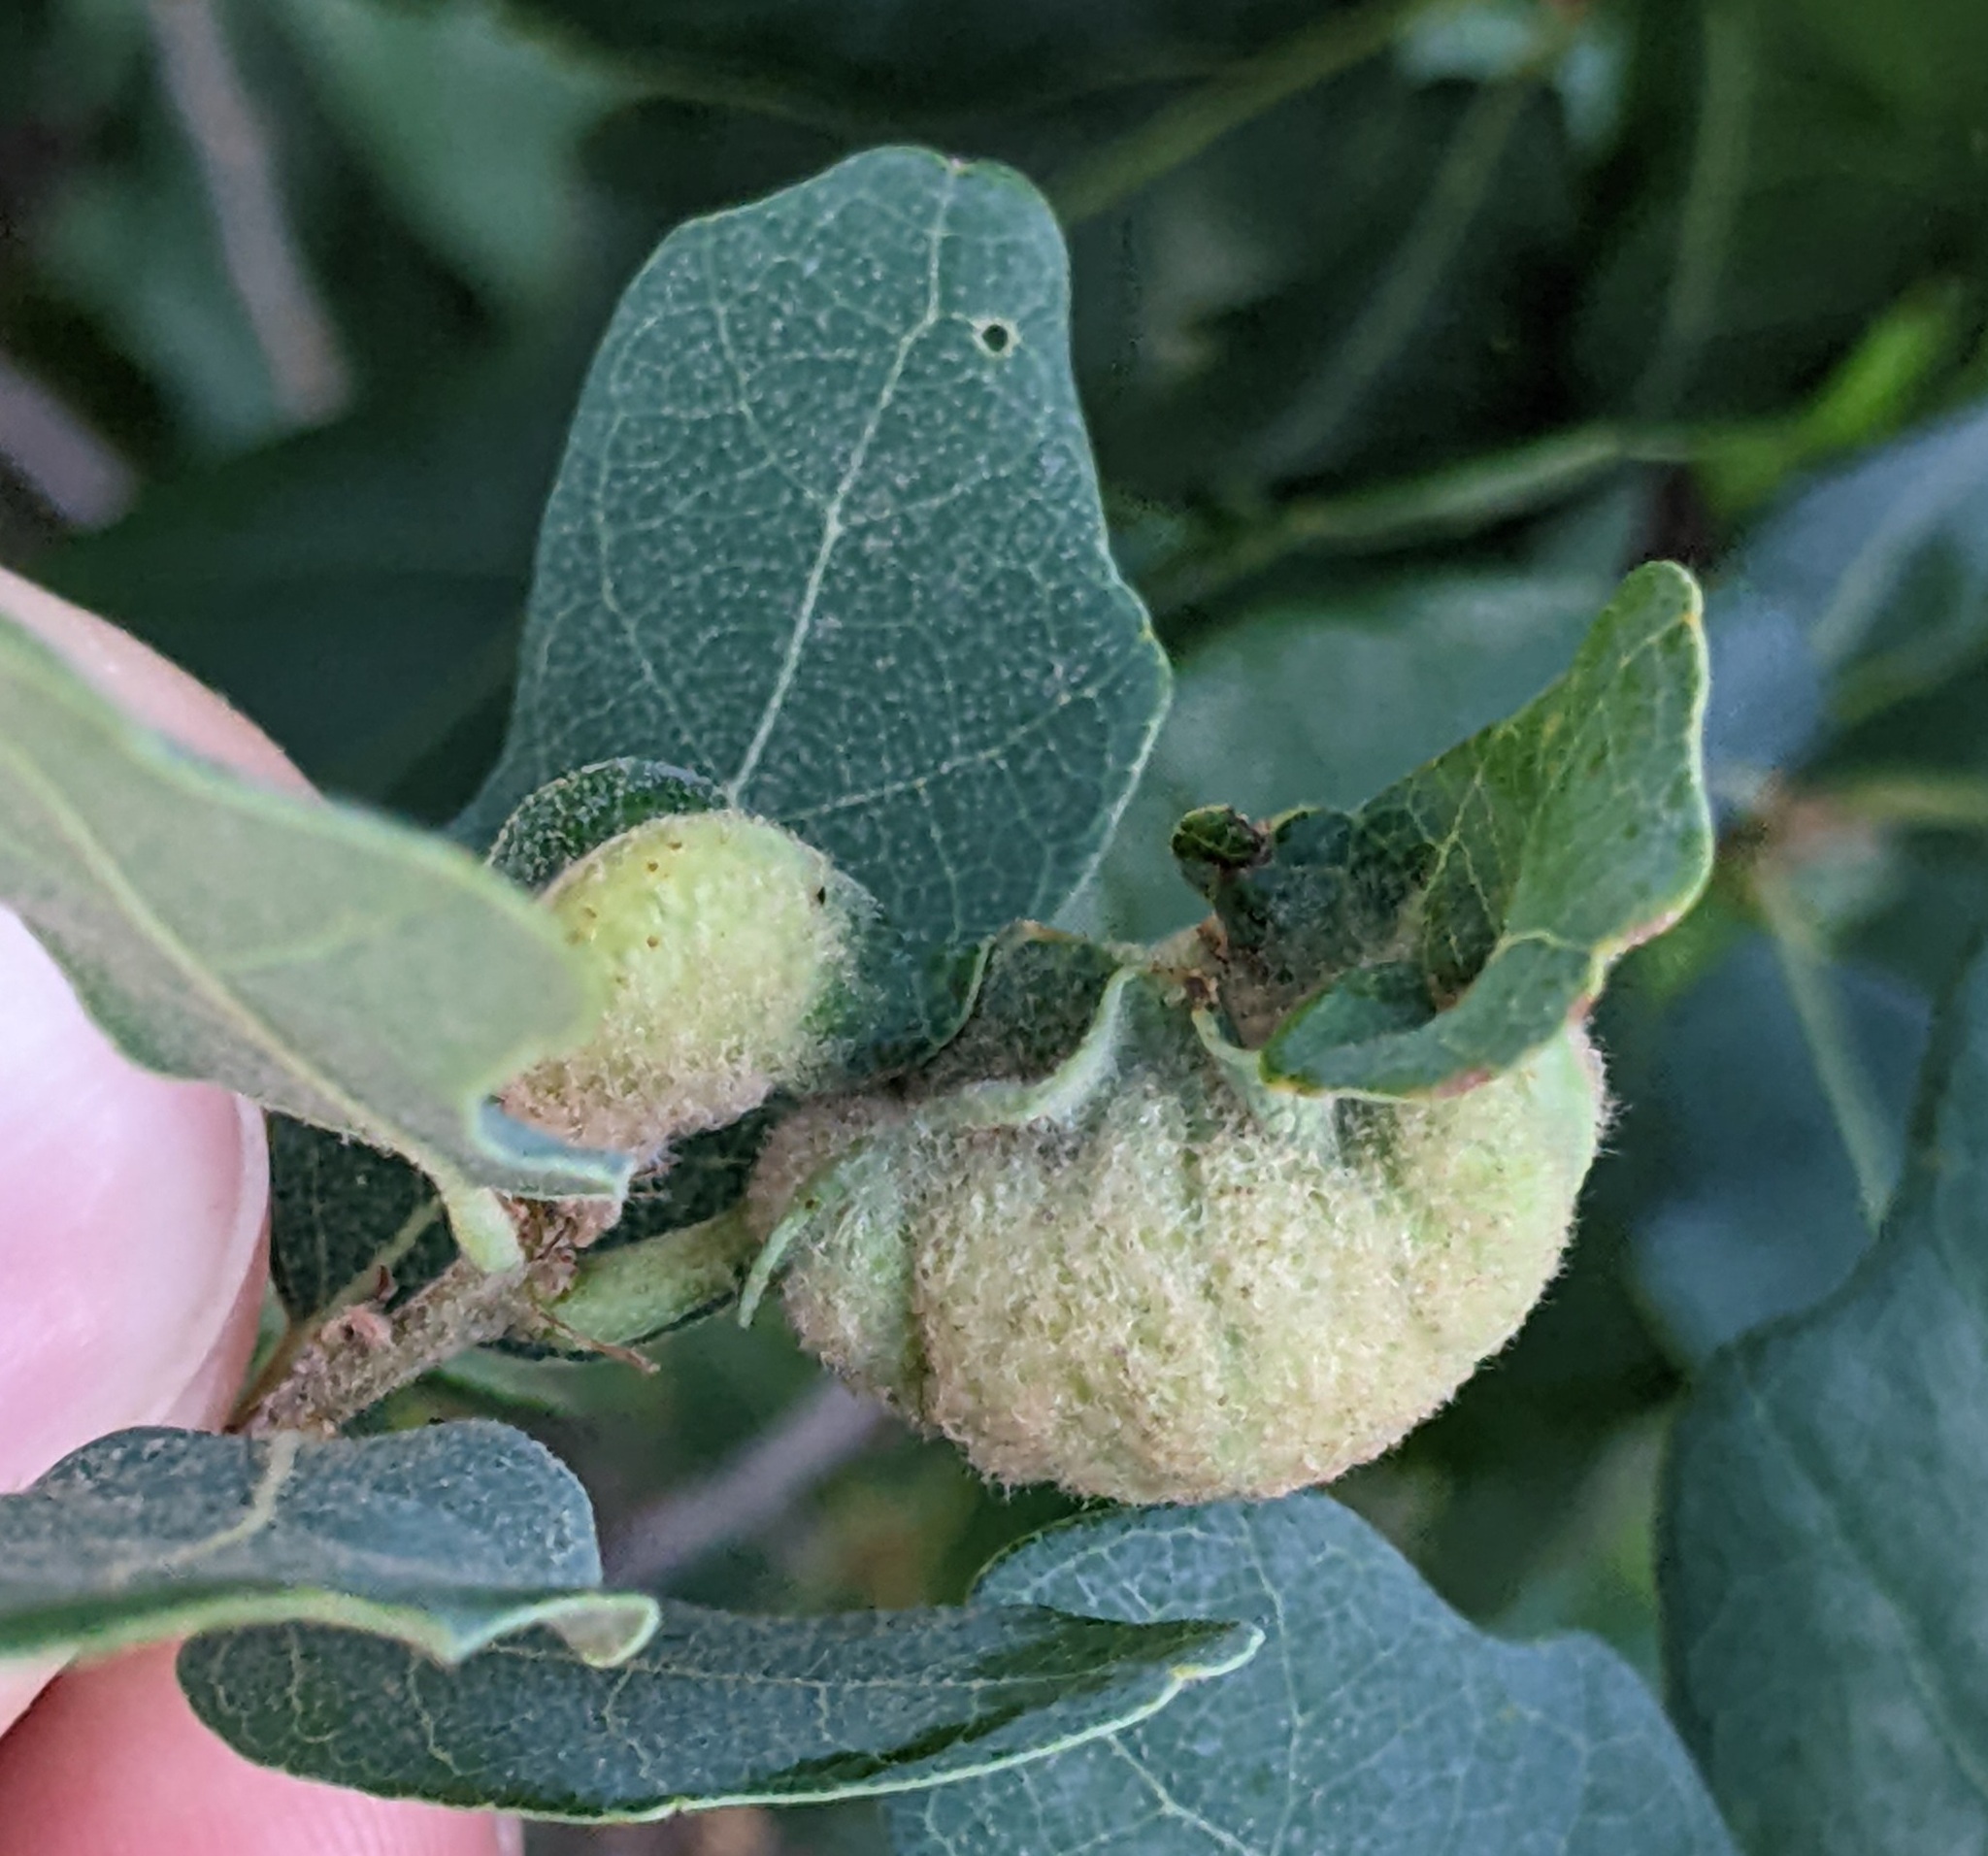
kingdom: Animalia
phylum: Arthropoda
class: Insecta
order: Hymenoptera
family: Cynipidae
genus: Neuroterus
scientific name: Neuroterus
